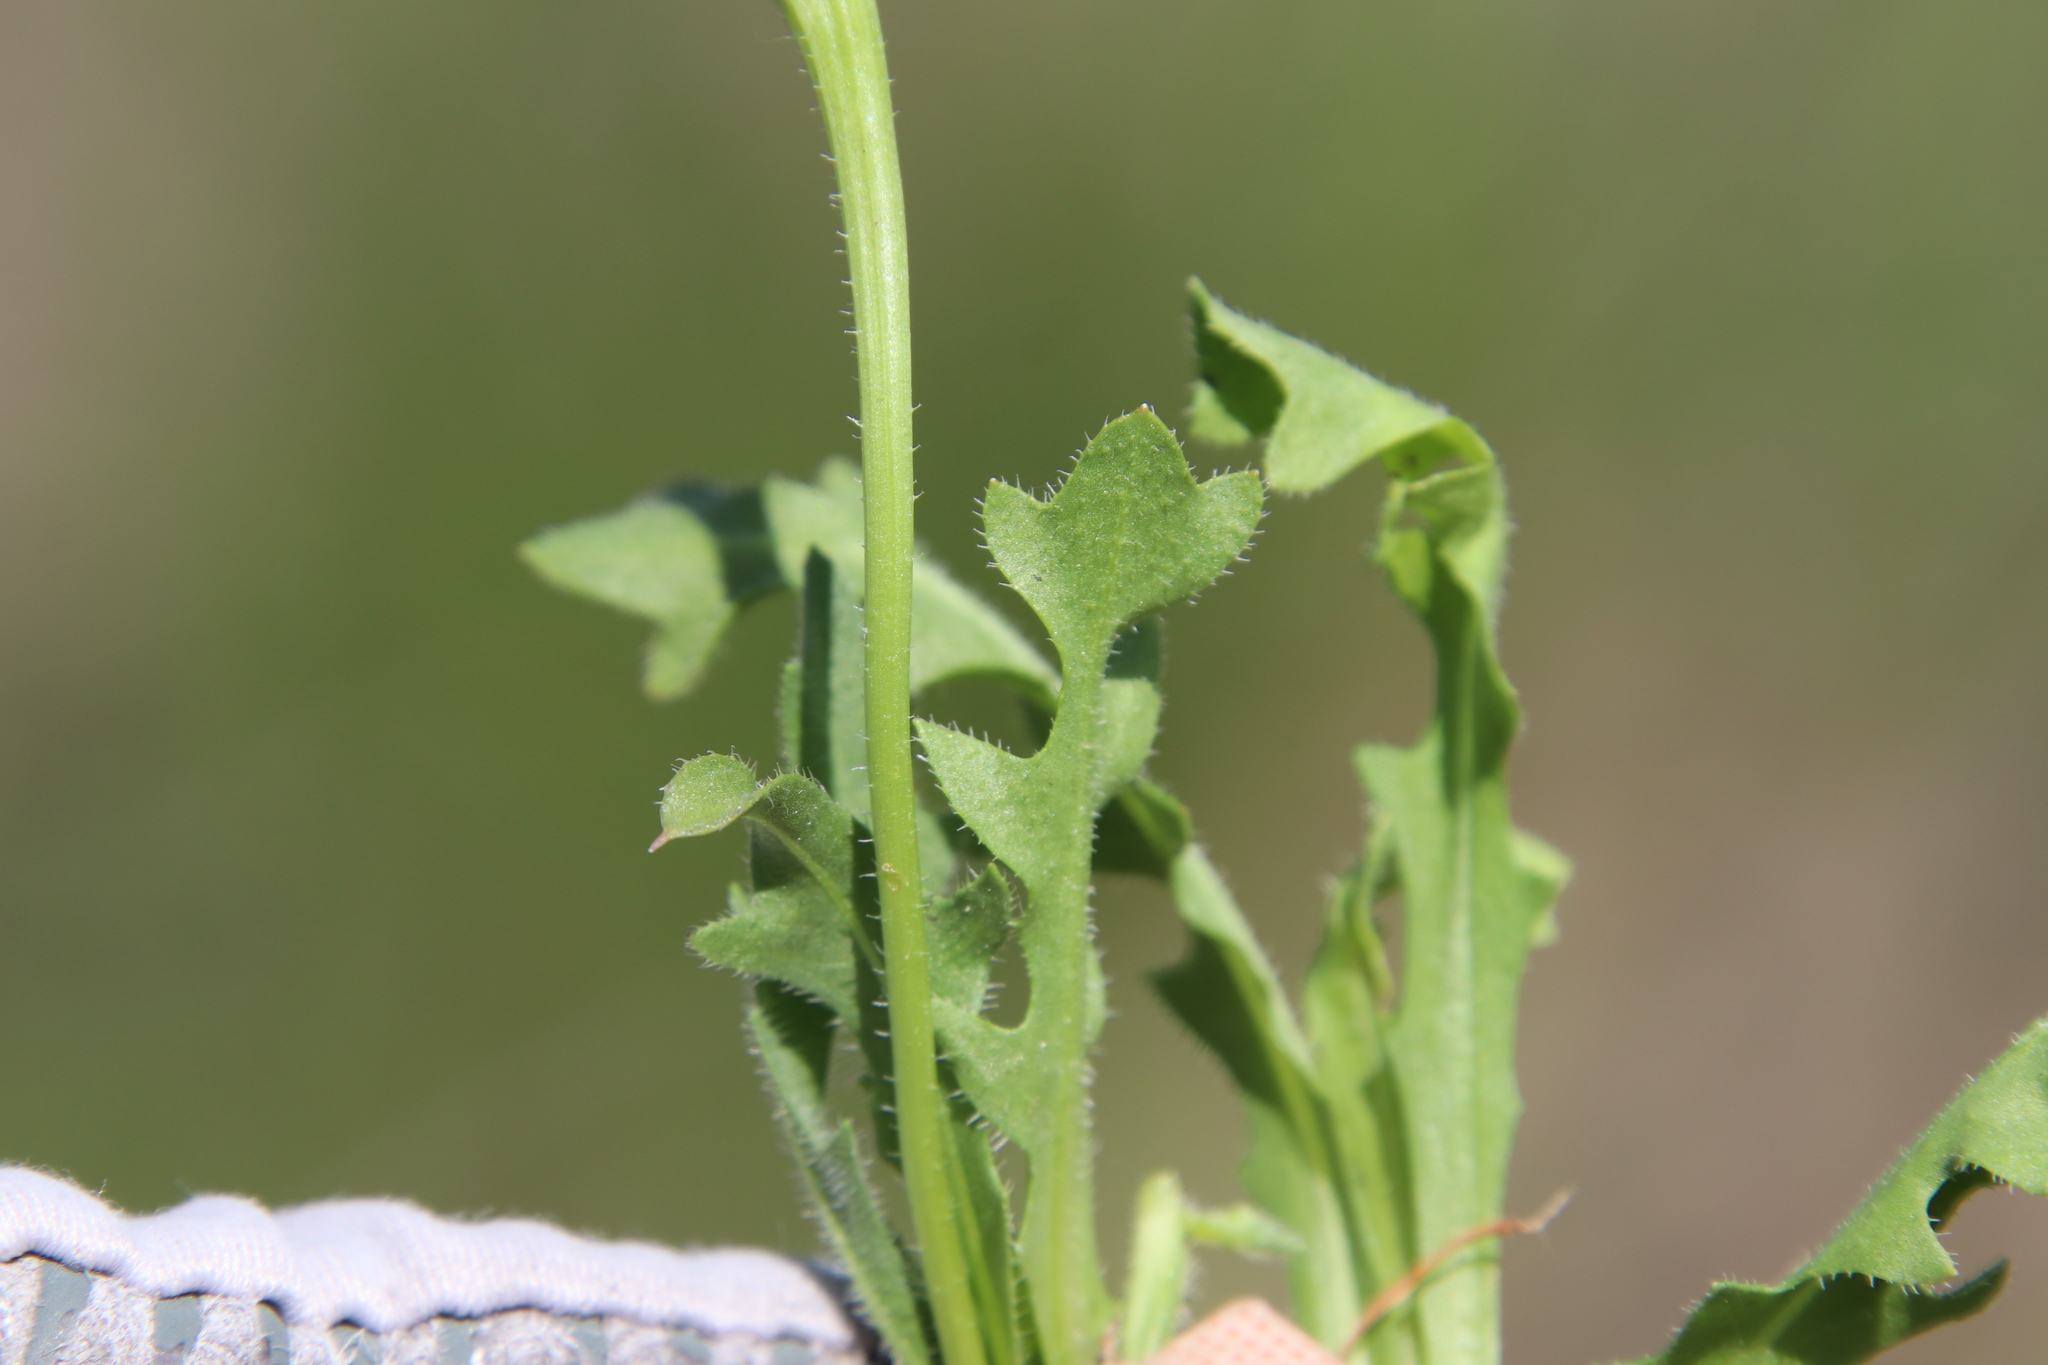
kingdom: Plantae
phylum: Tracheophyta
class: Magnoliopsida
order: Asterales
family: Asteraceae
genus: Hedypnois
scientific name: Hedypnois rhagadioloides
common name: Cretan weed
